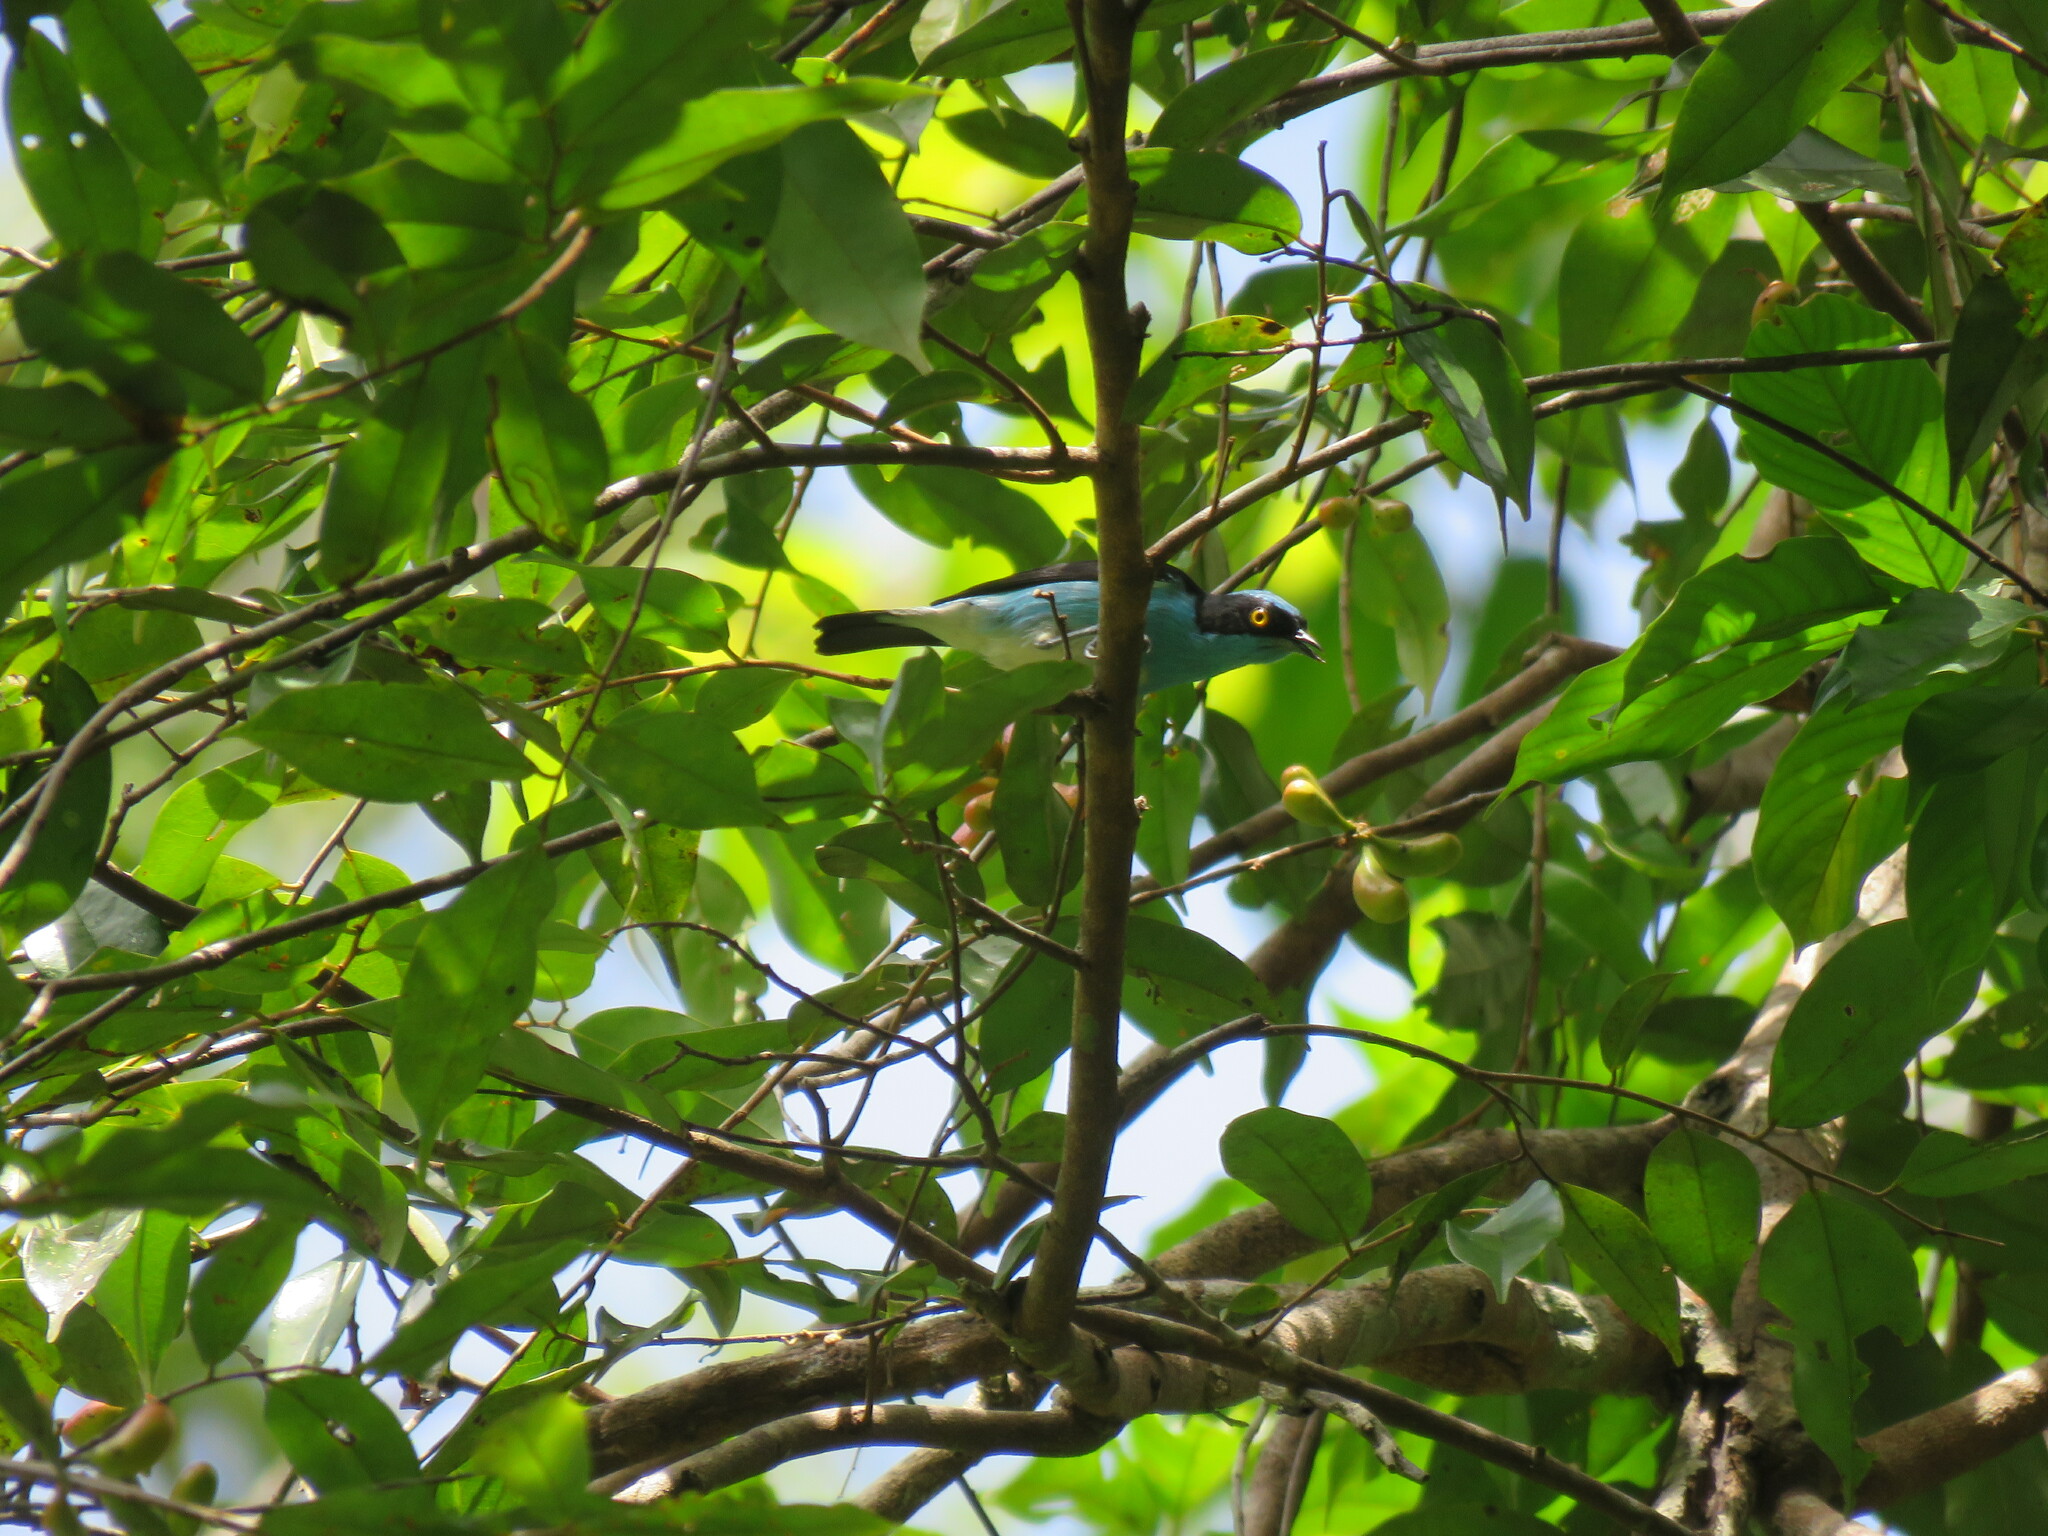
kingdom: Animalia
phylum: Chordata
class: Aves
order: Passeriformes
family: Thraupidae
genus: Dacnis
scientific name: Dacnis lineata
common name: Black-faced dacnis
